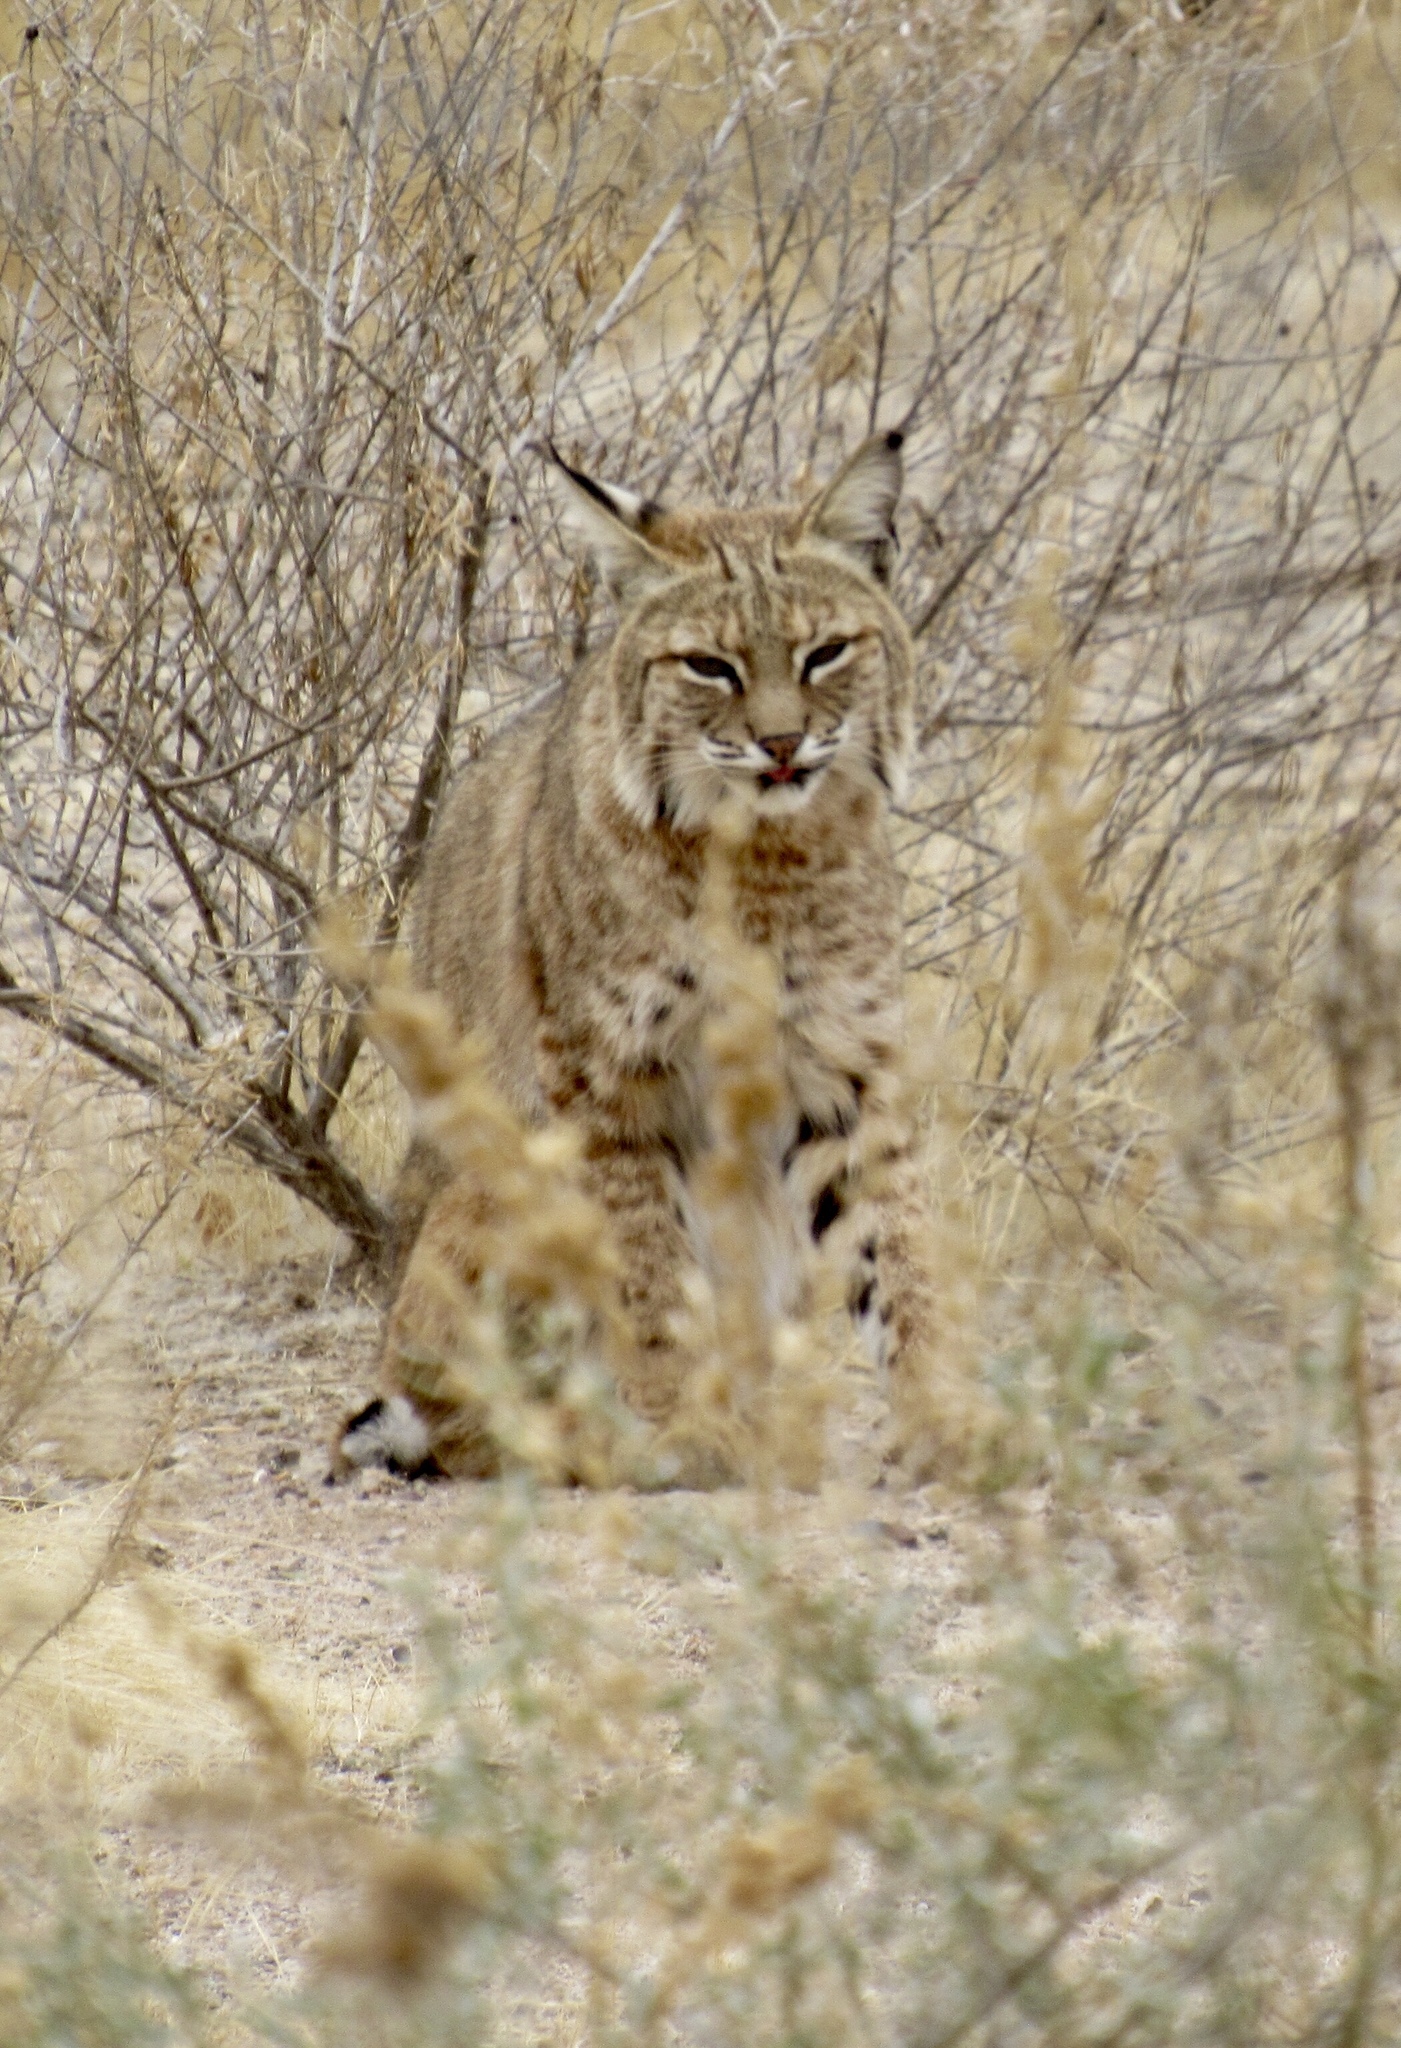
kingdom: Animalia
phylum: Chordata
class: Mammalia
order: Carnivora
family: Felidae
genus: Lynx
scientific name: Lynx rufus
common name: Bobcat
